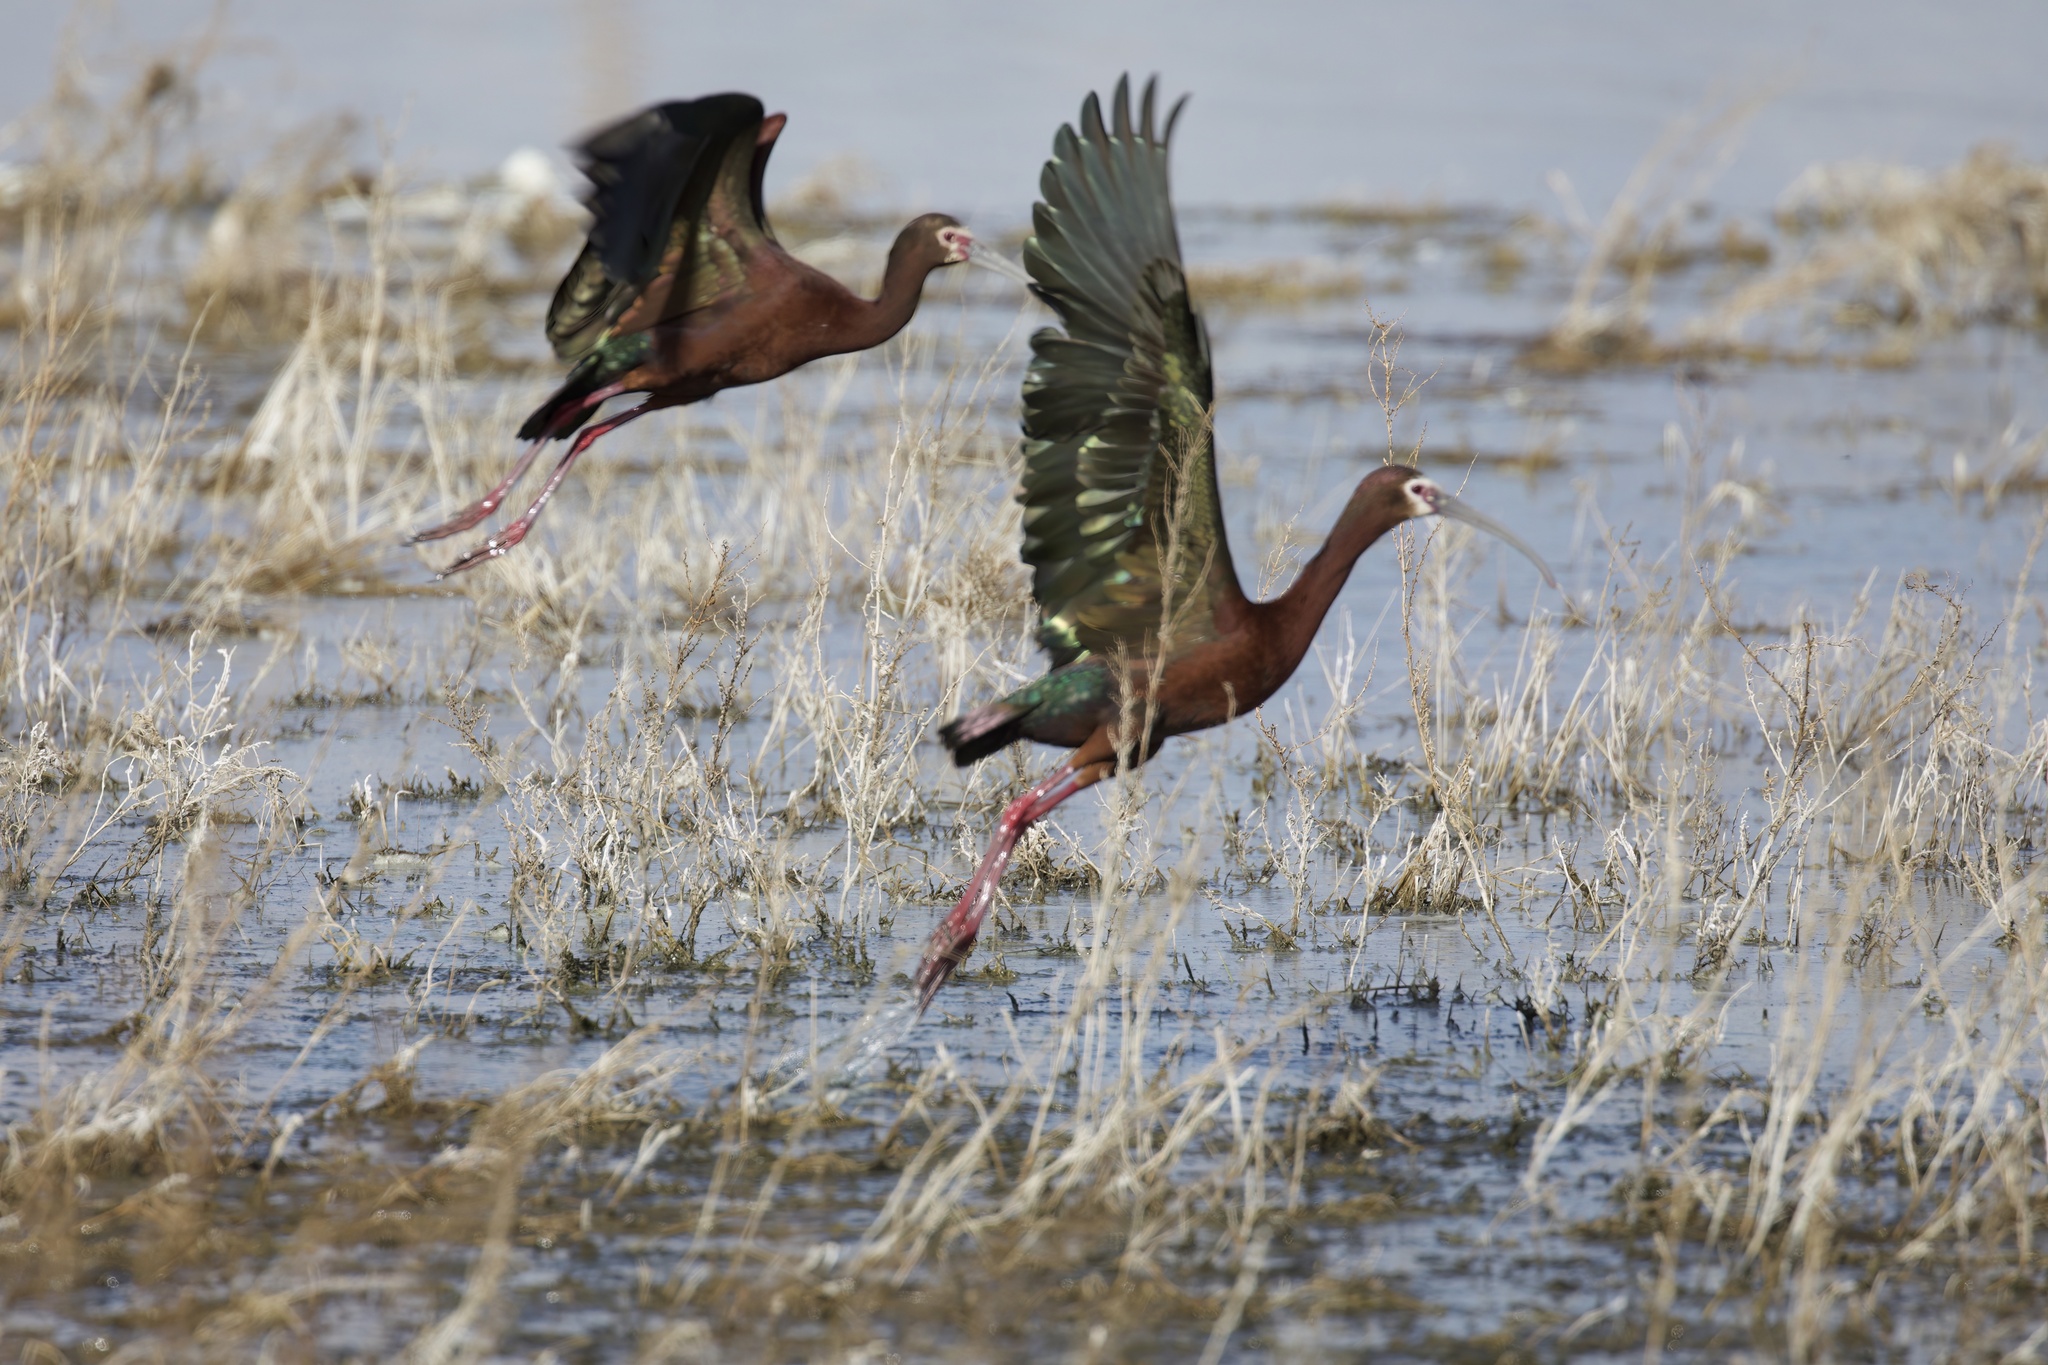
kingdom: Animalia
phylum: Chordata
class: Aves
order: Pelecaniformes
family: Threskiornithidae
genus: Plegadis
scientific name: Plegadis chihi
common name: White-faced ibis
